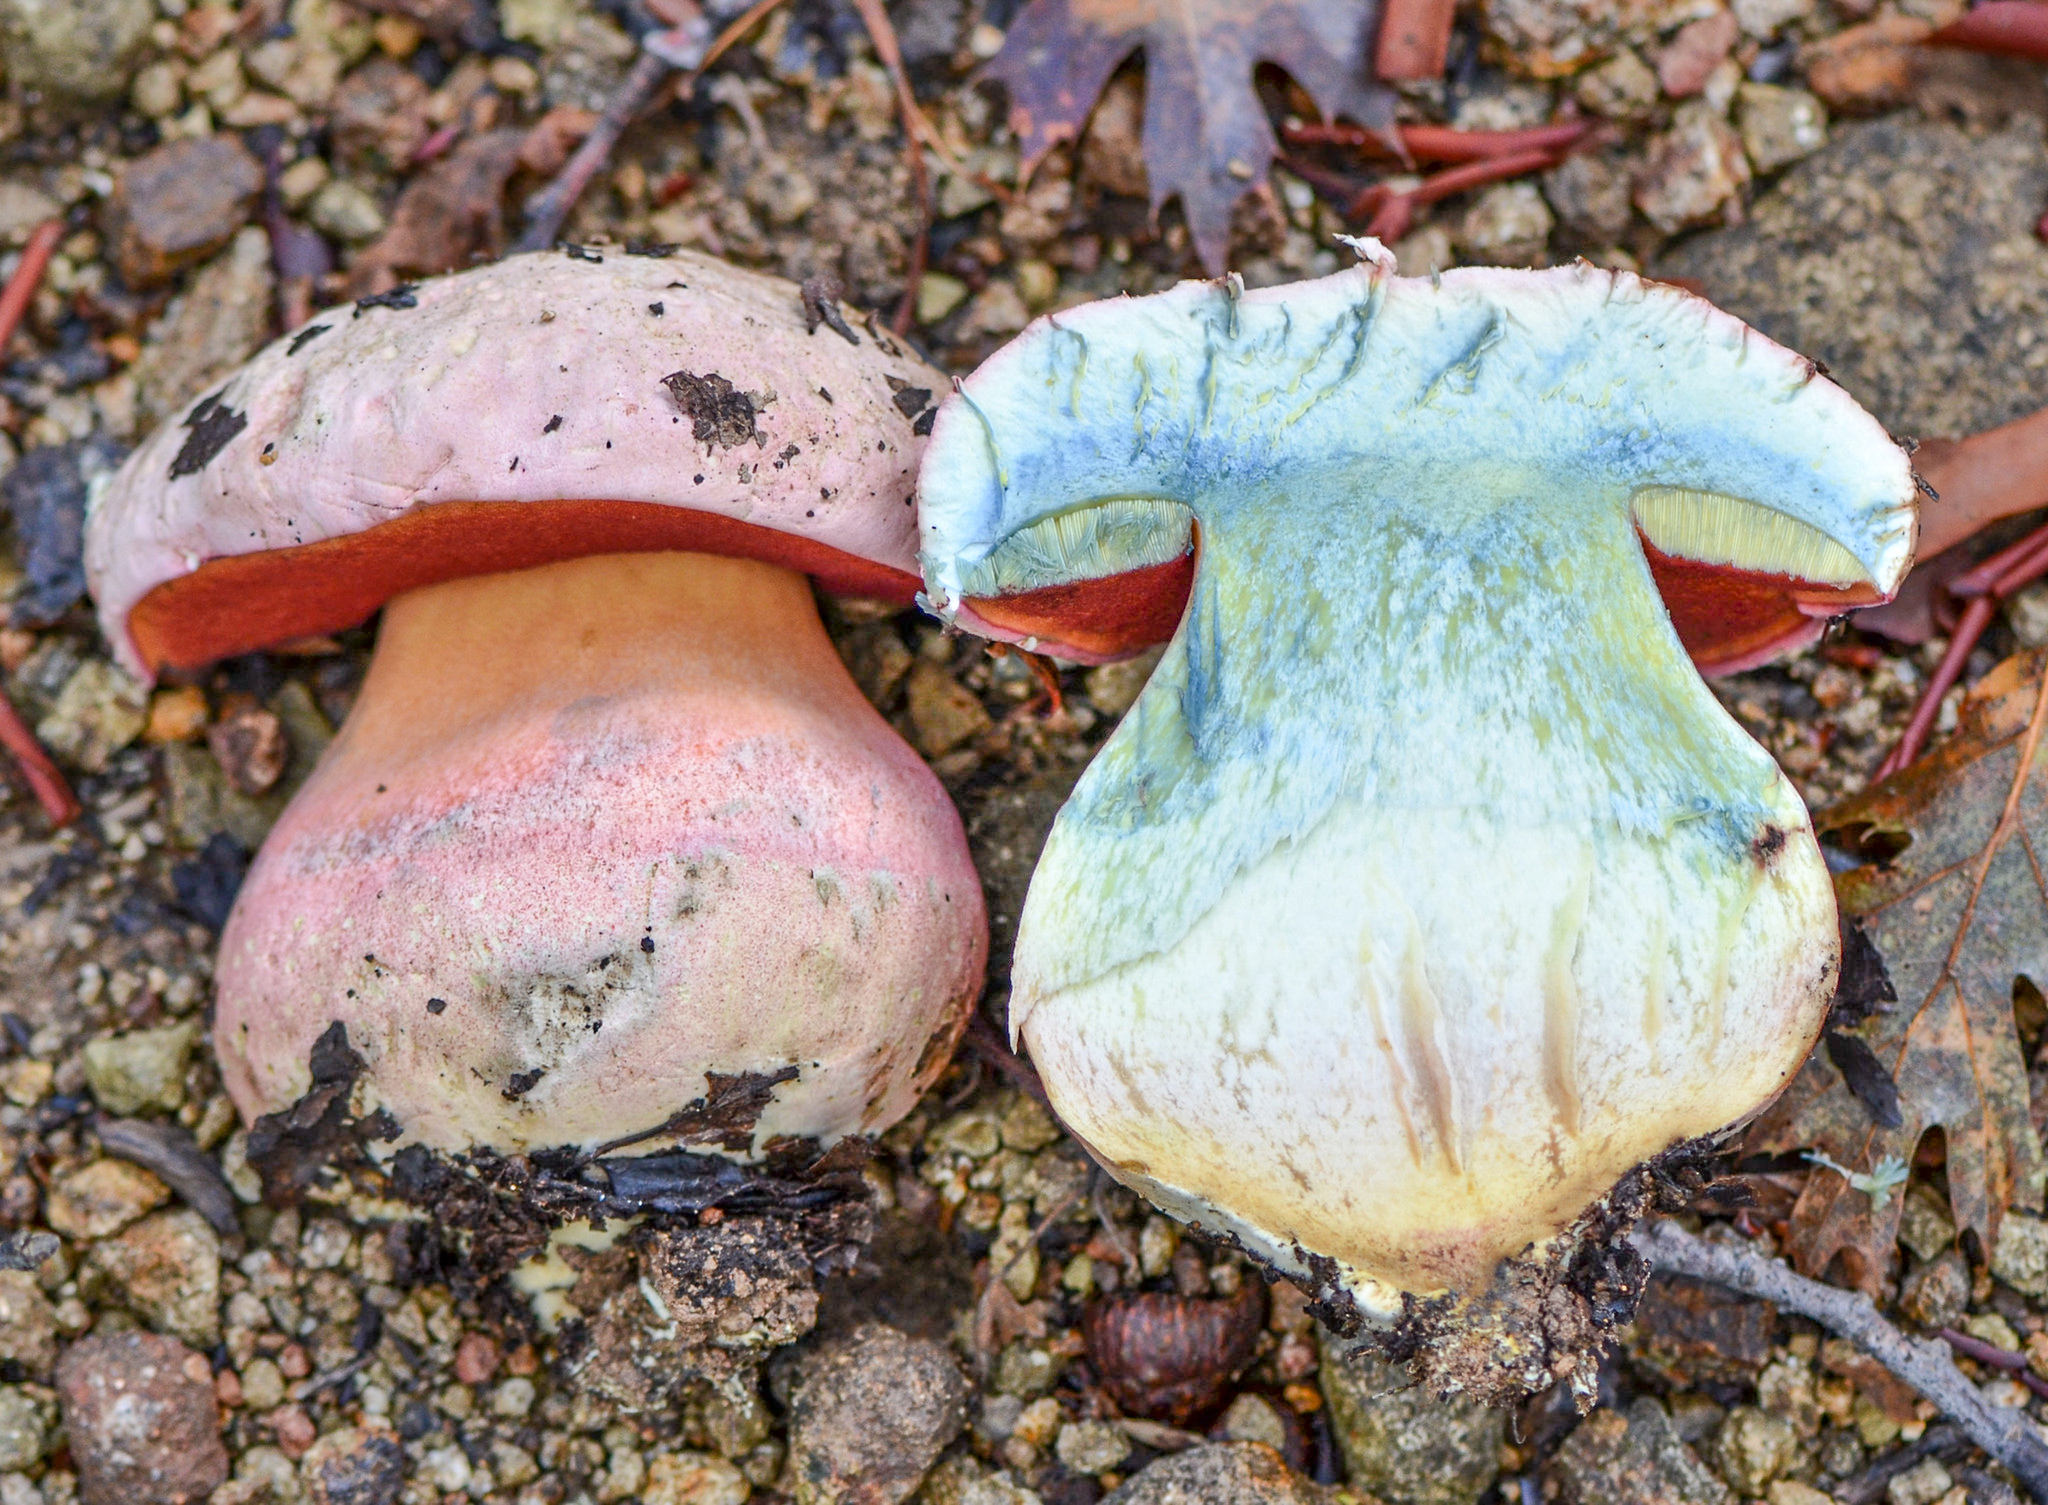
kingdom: Fungi
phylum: Basidiomycota
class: Agaricomycetes
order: Boletales
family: Boletaceae
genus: Rubroboletus
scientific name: Rubroboletus eastwoodiae
